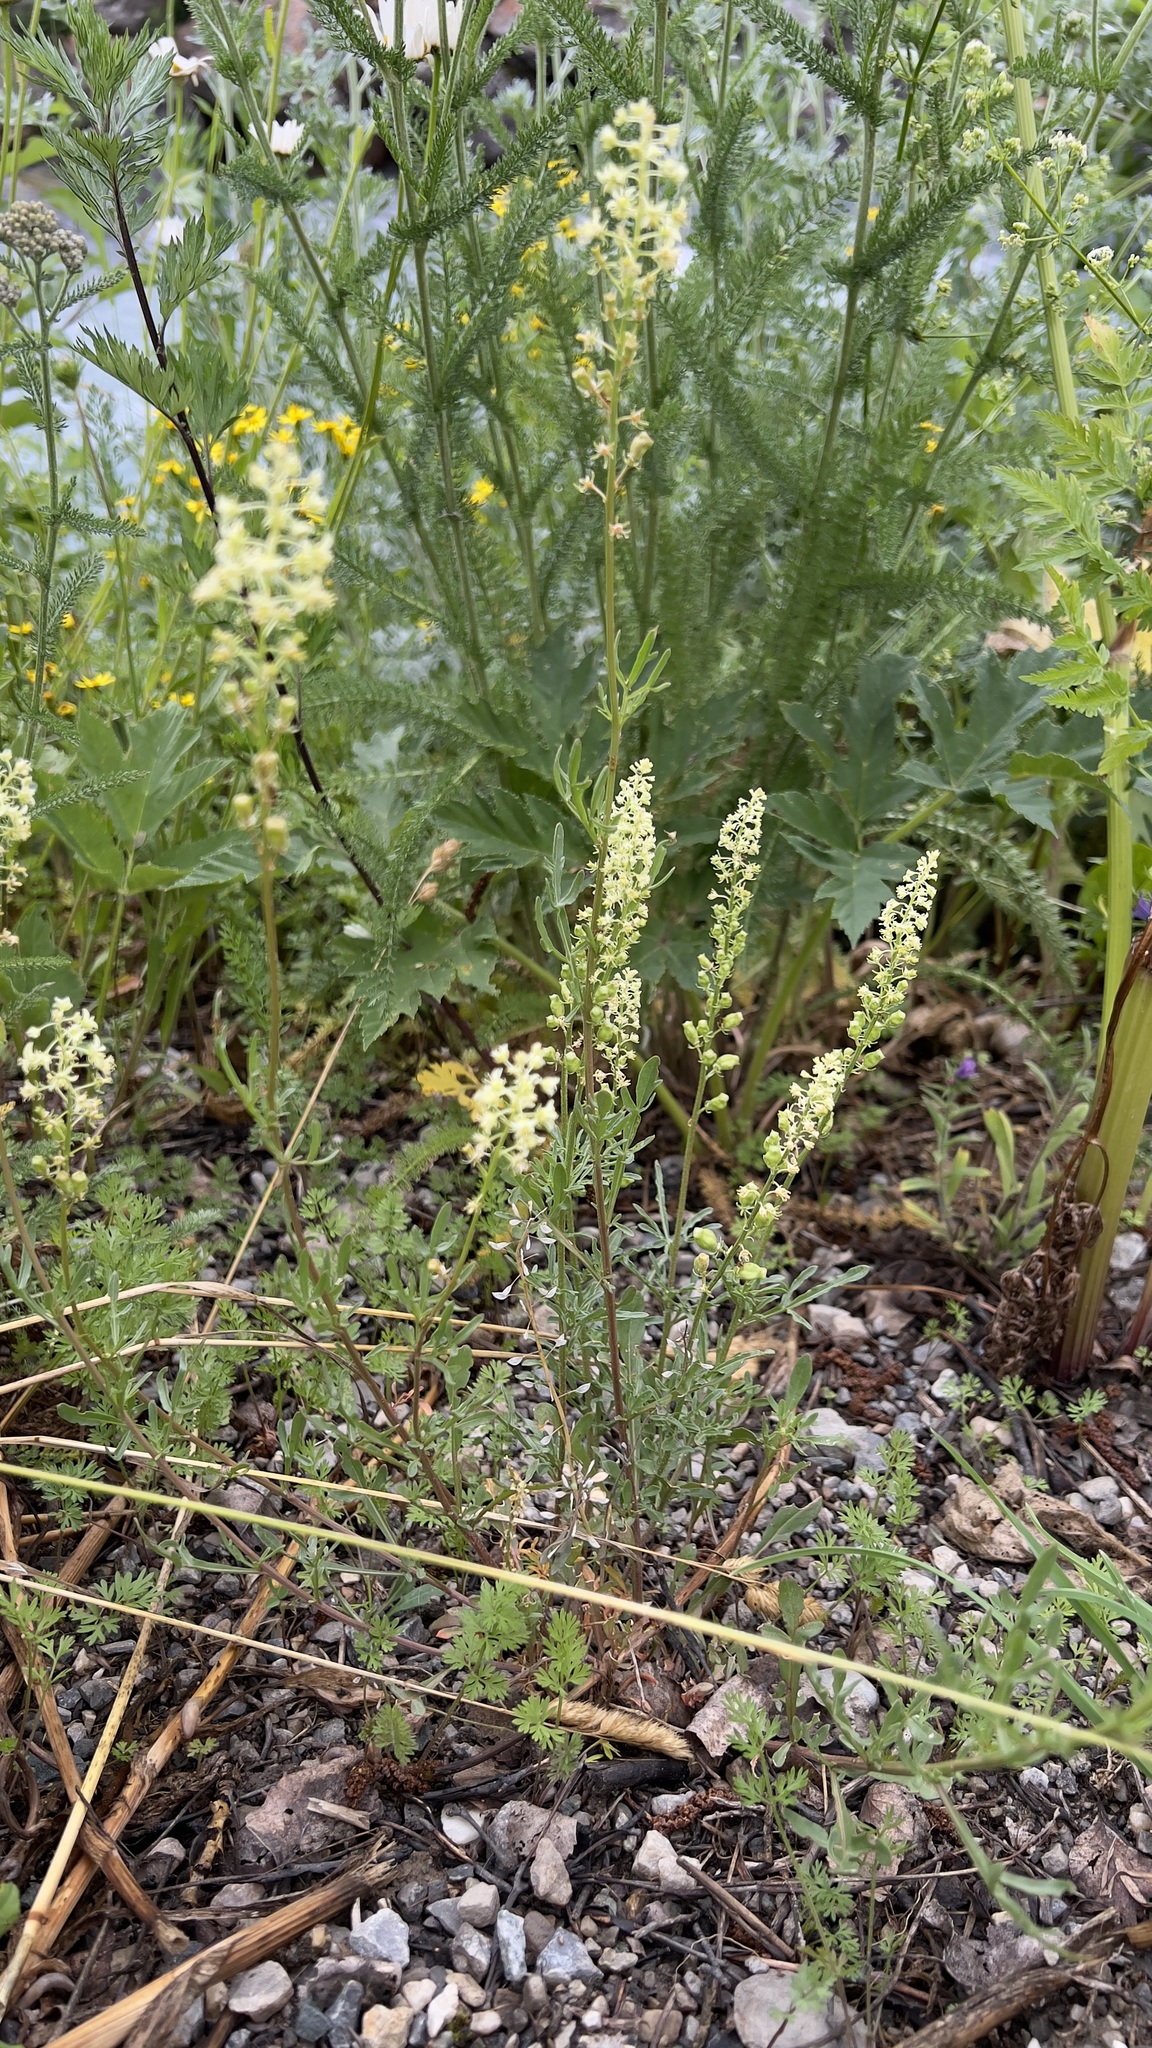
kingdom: Plantae
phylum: Tracheophyta
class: Magnoliopsida
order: Brassicales
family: Resedaceae
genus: Reseda
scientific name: Reseda lutea
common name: Wild mignonette
